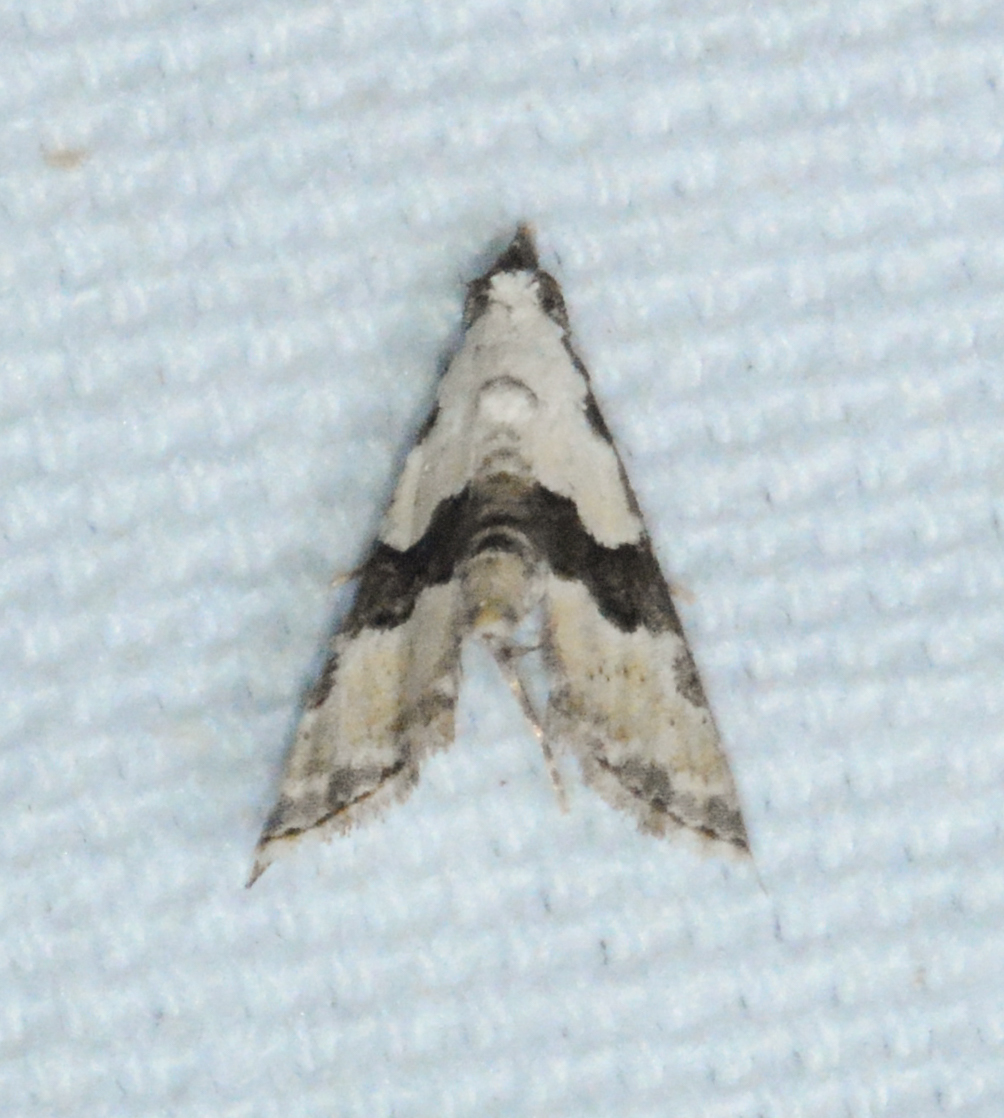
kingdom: Animalia
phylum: Arthropoda
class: Insecta
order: Lepidoptera
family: Noctuidae
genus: Nigetia
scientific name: Nigetia formosalis
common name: Thin-winged owlet
